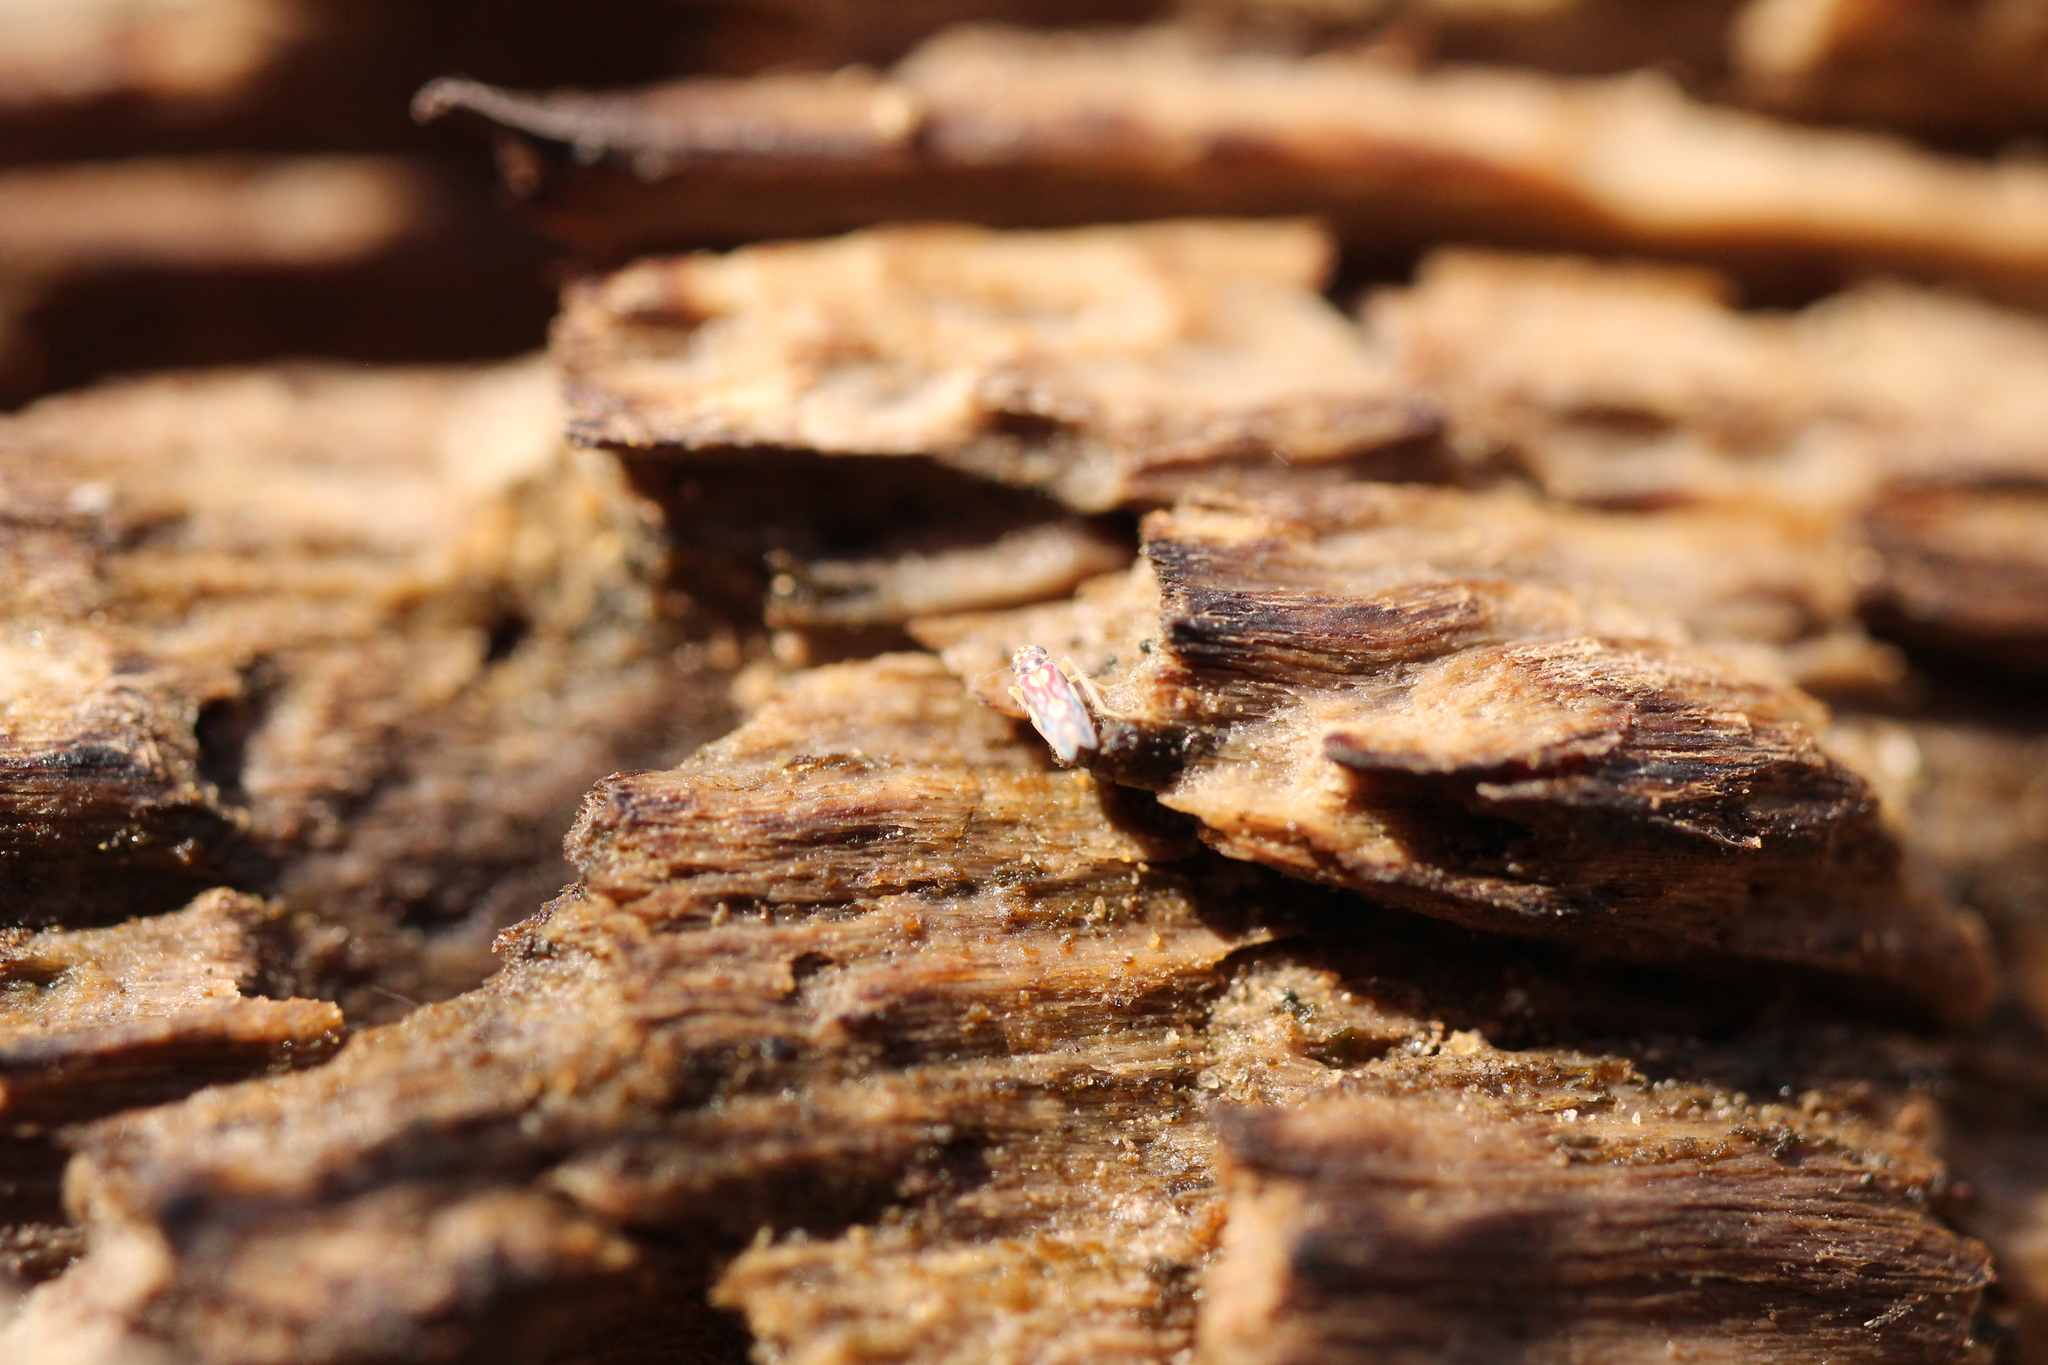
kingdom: Animalia
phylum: Arthropoda
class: Insecta
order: Hemiptera
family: Cicadellidae
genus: Rossmoneura
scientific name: Rossmoneura calva
